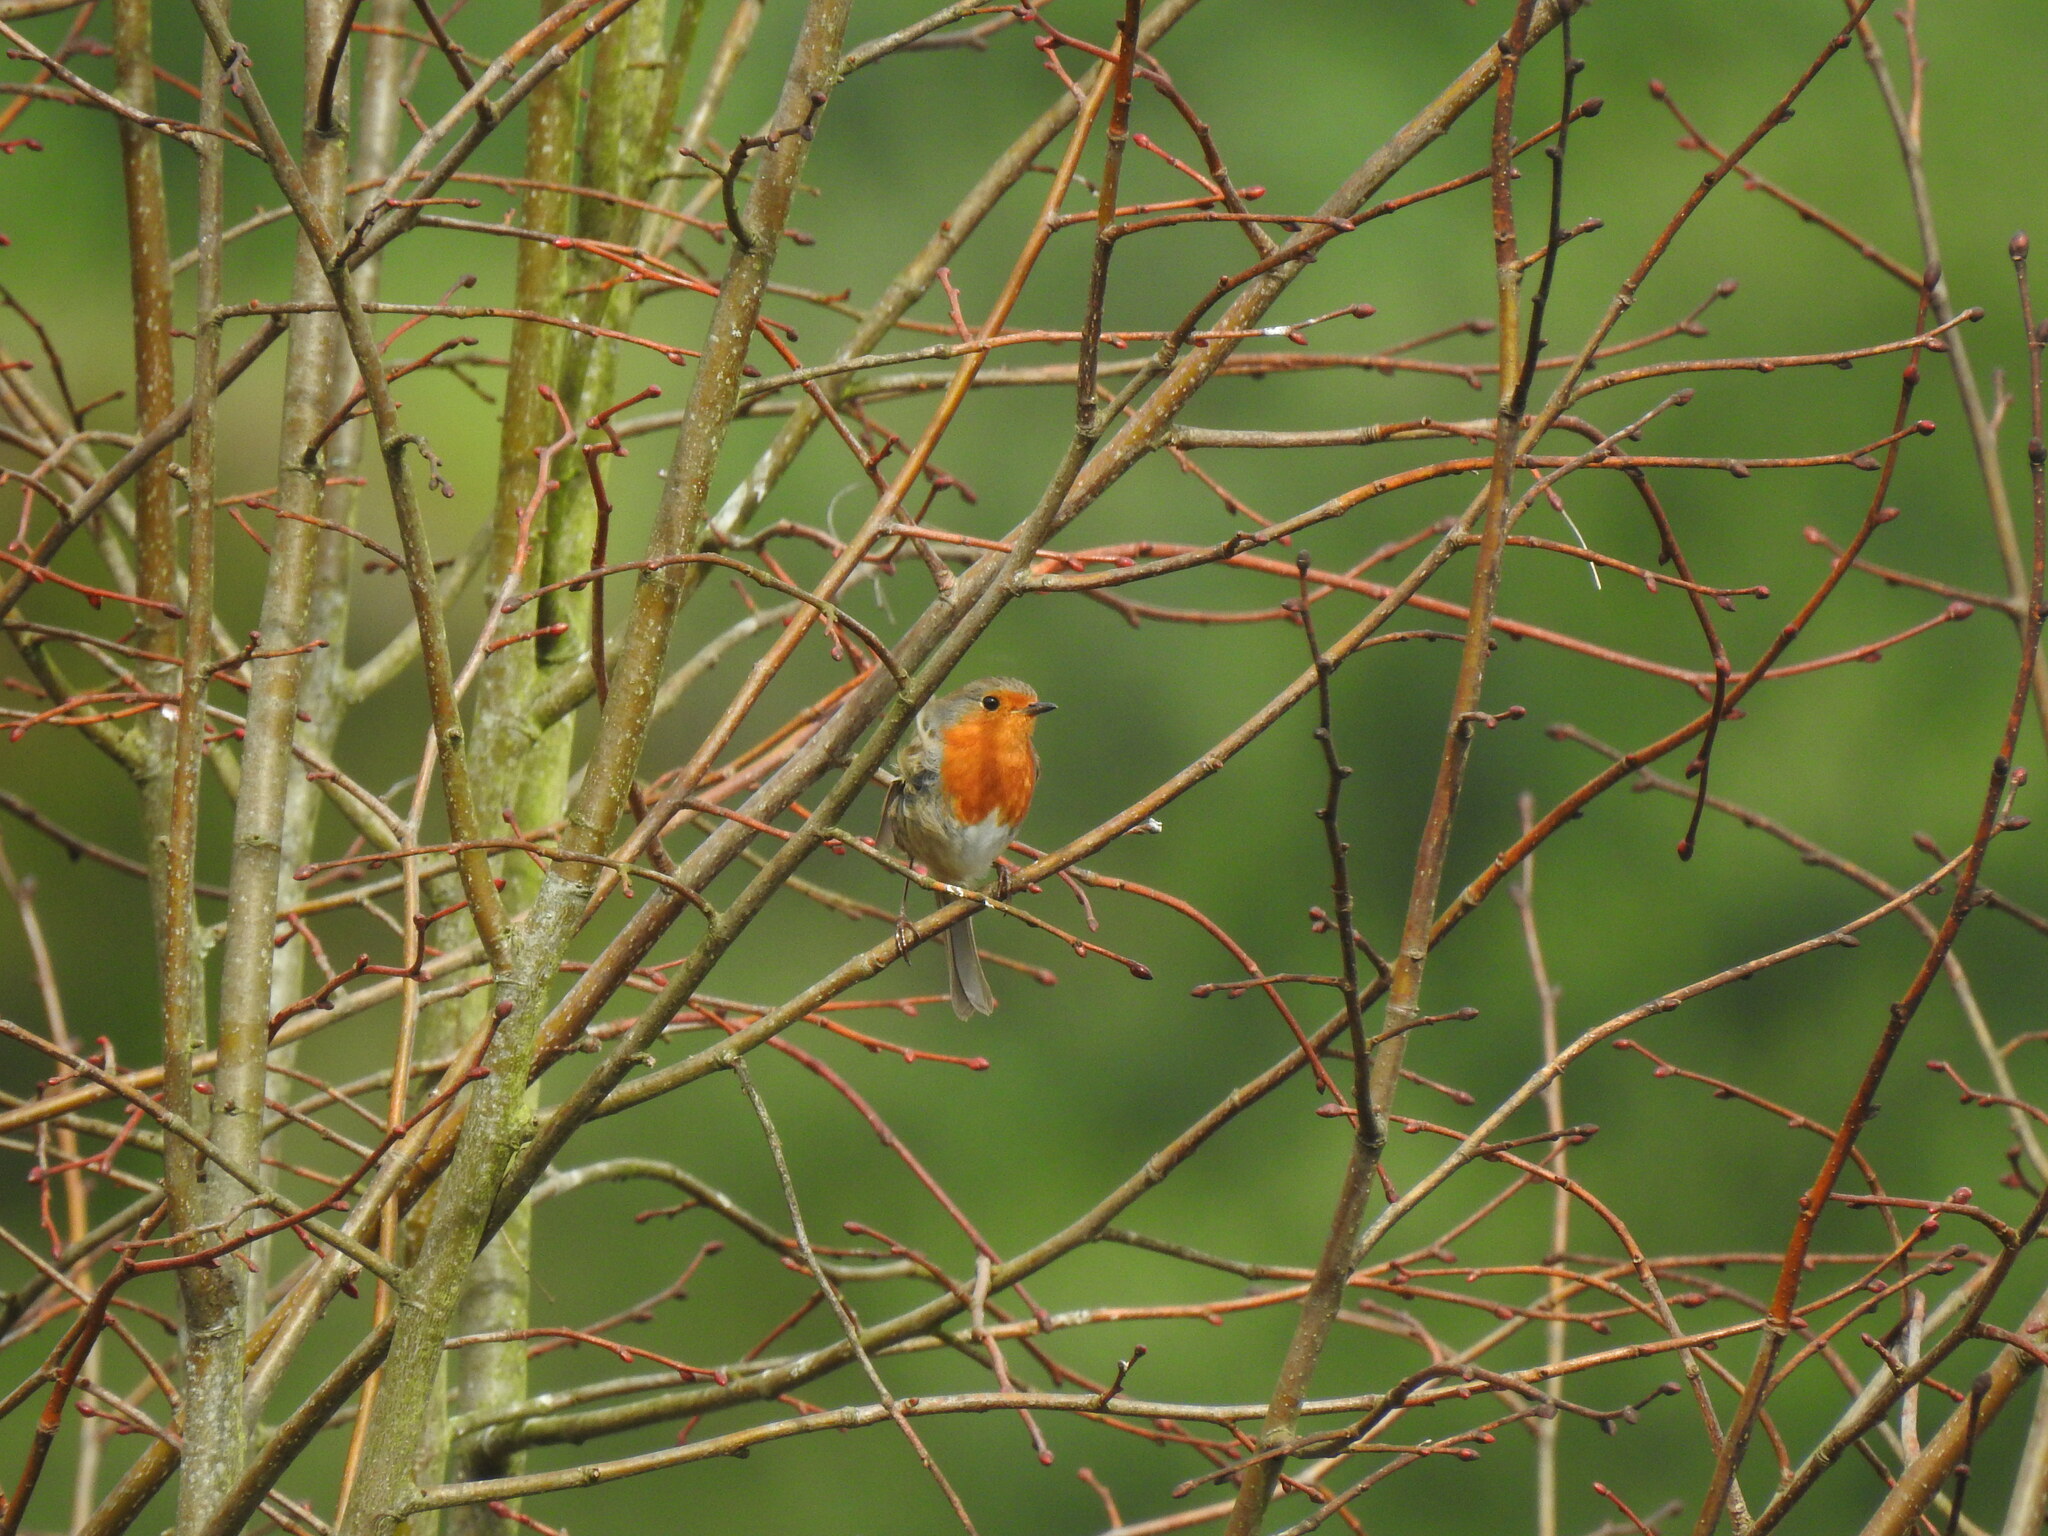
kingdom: Animalia
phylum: Chordata
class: Aves
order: Passeriformes
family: Muscicapidae
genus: Erithacus
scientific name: Erithacus rubecula
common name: European robin
